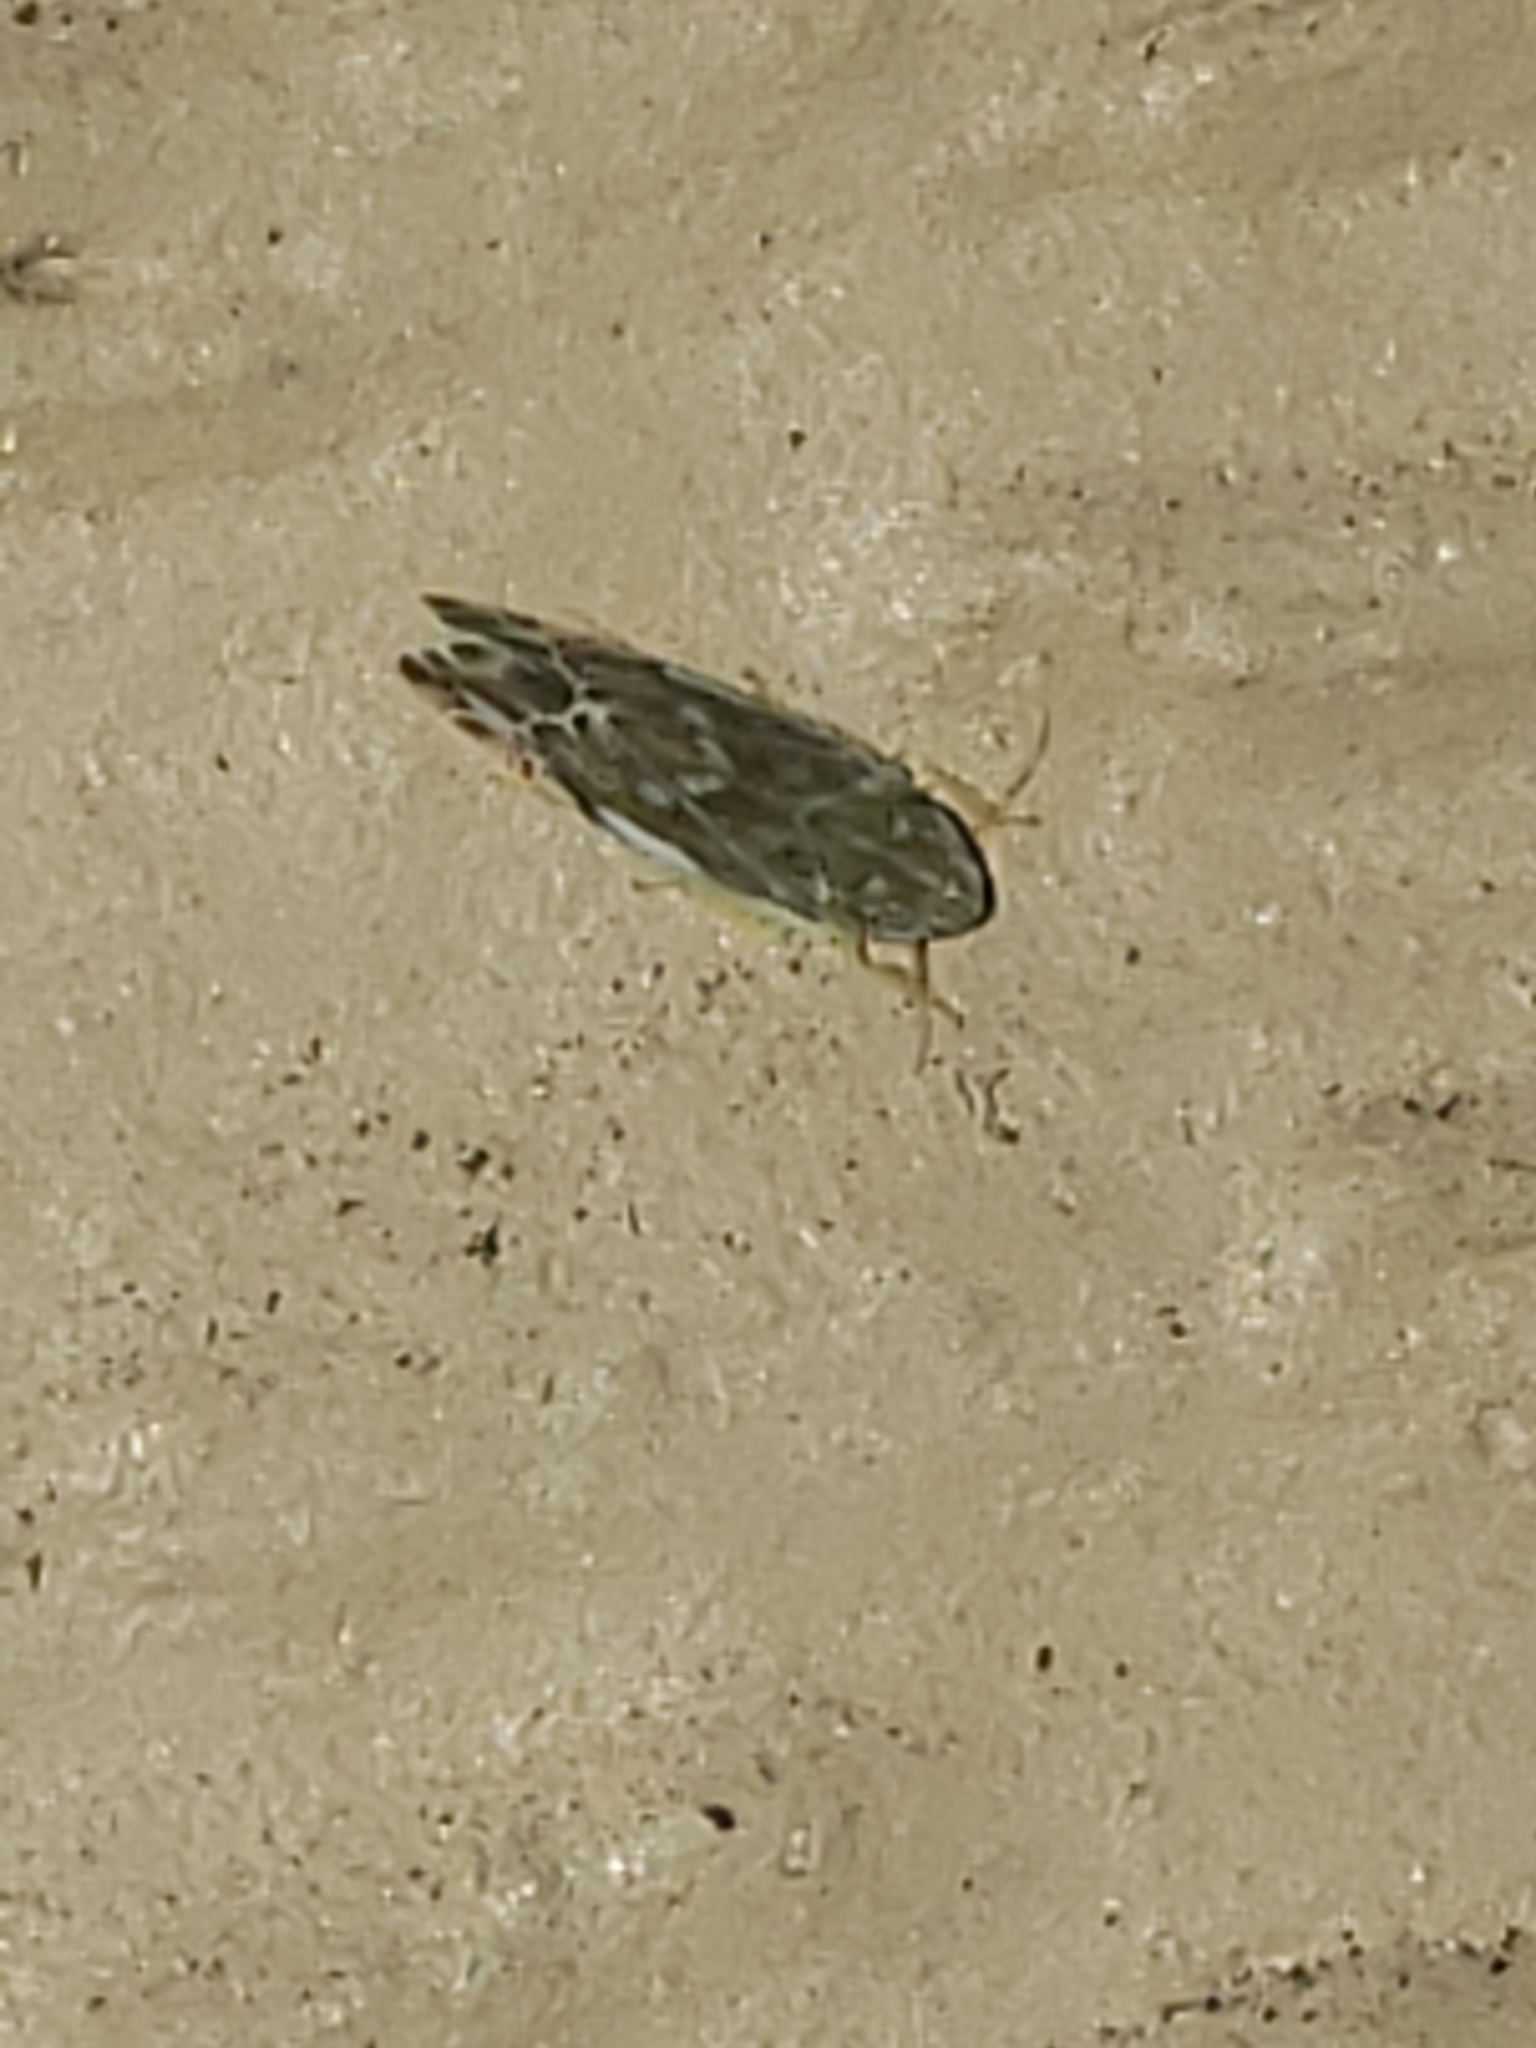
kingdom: Animalia
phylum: Arthropoda
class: Insecta
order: Hemiptera
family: Cicadellidae
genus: Erasmoneura
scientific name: Erasmoneura vulnerata
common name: The wounded leafhopper
